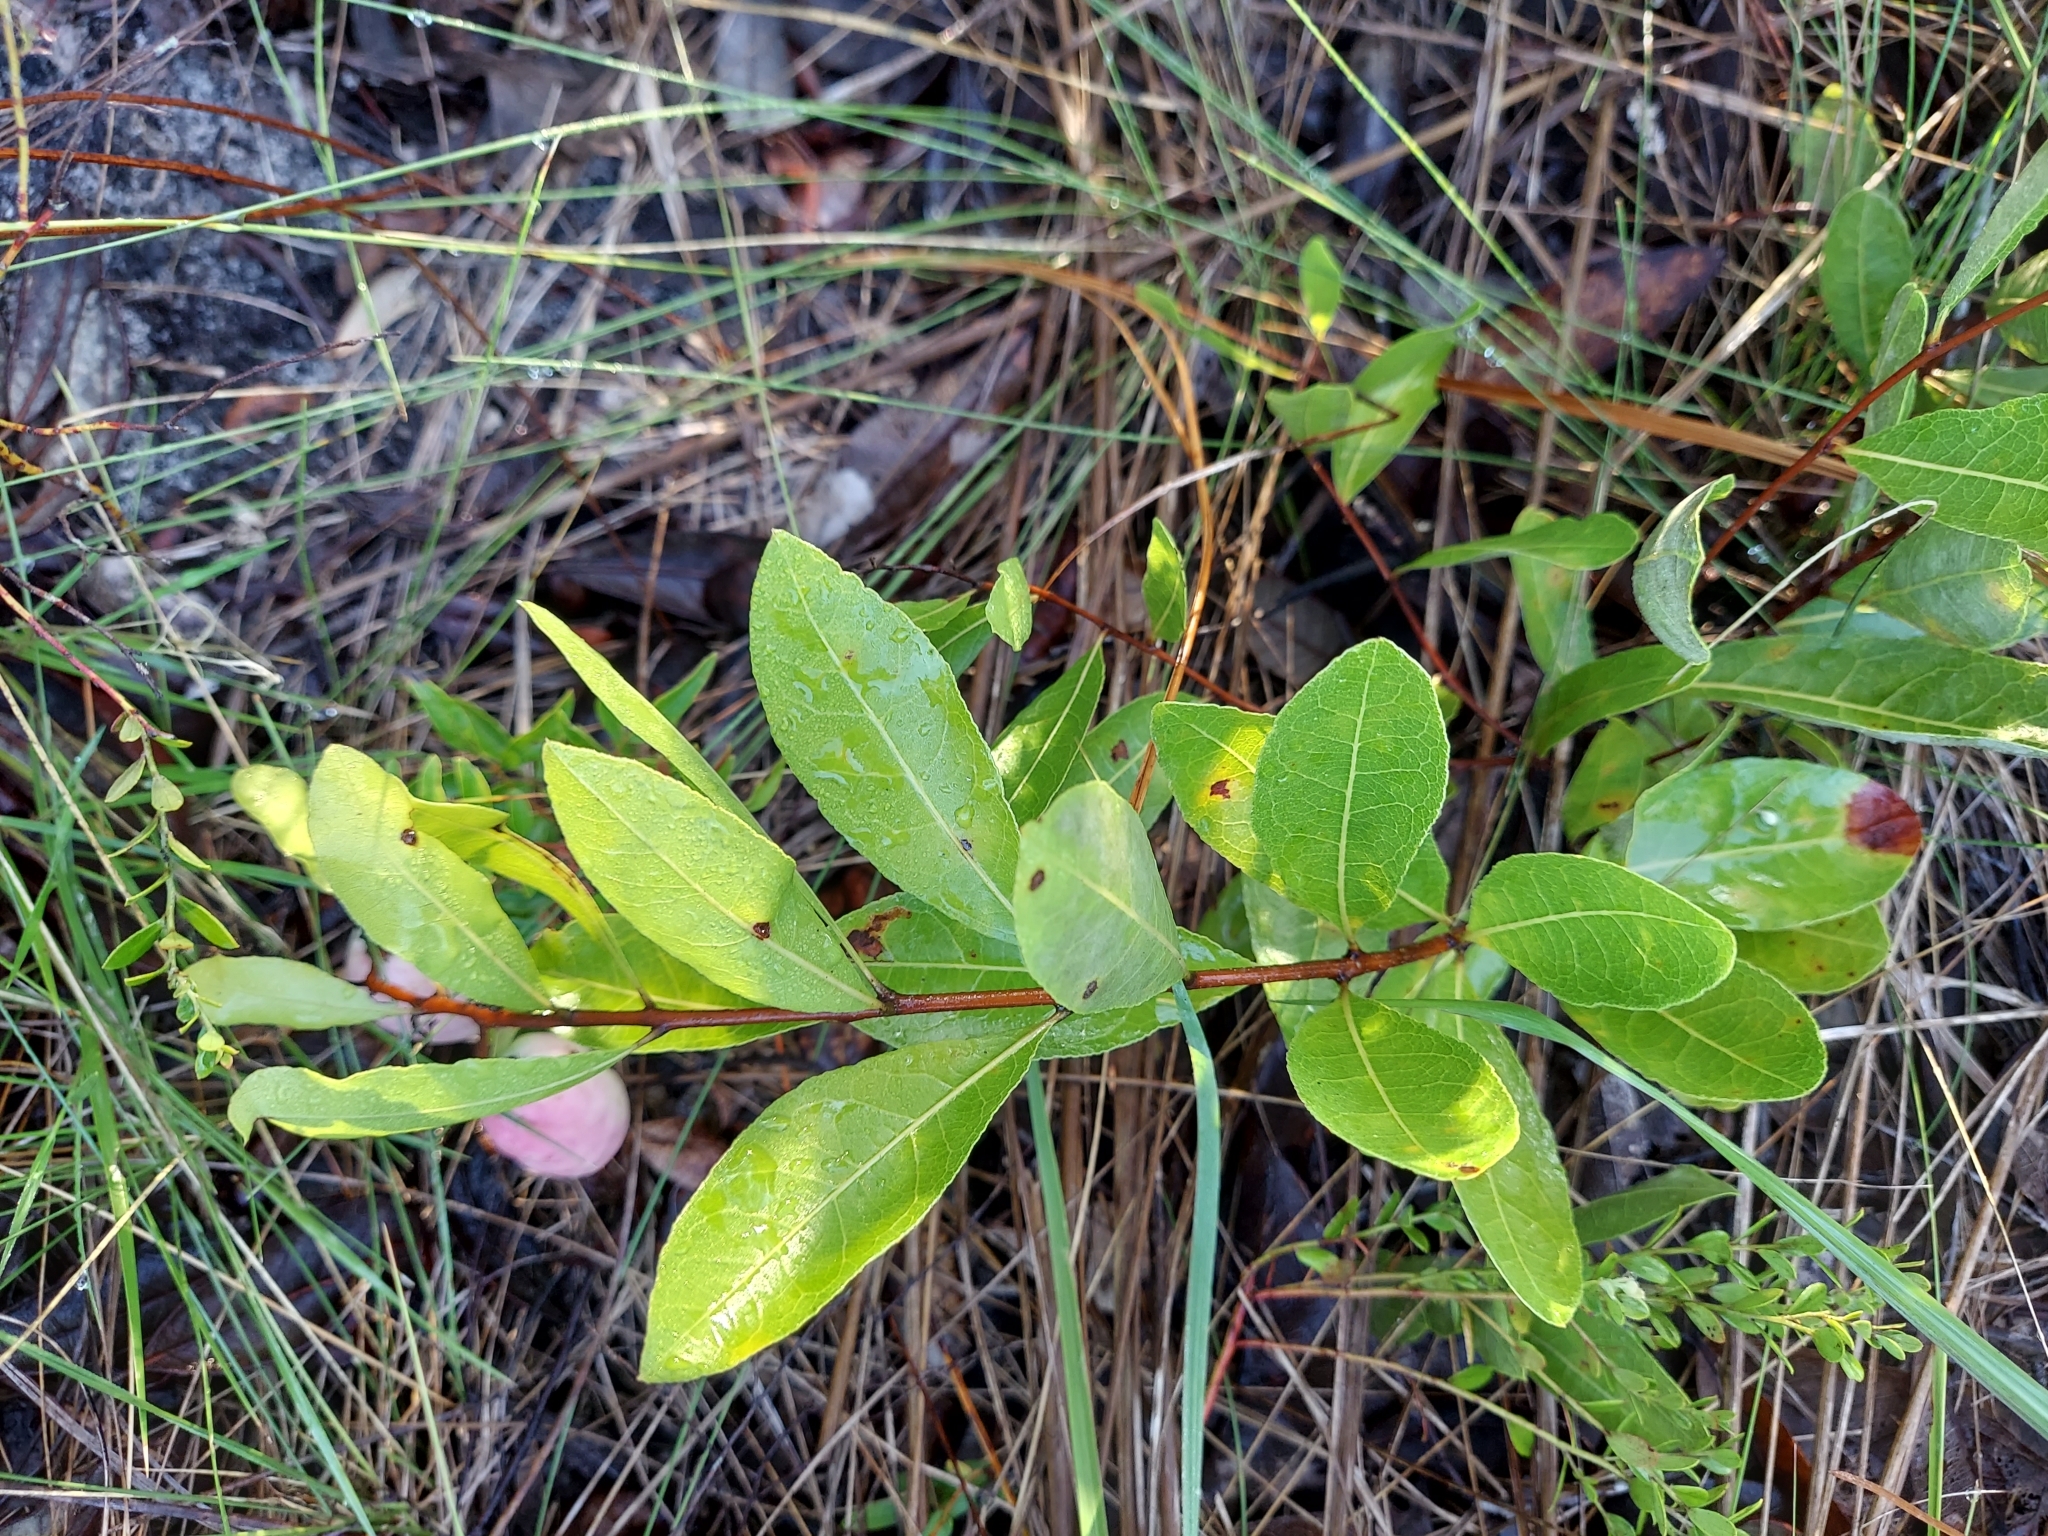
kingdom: Plantae
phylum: Tracheophyta
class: Magnoliopsida
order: Malpighiales
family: Chrysobalanaceae
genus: Geobalanus
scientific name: Geobalanus oblongifolius
